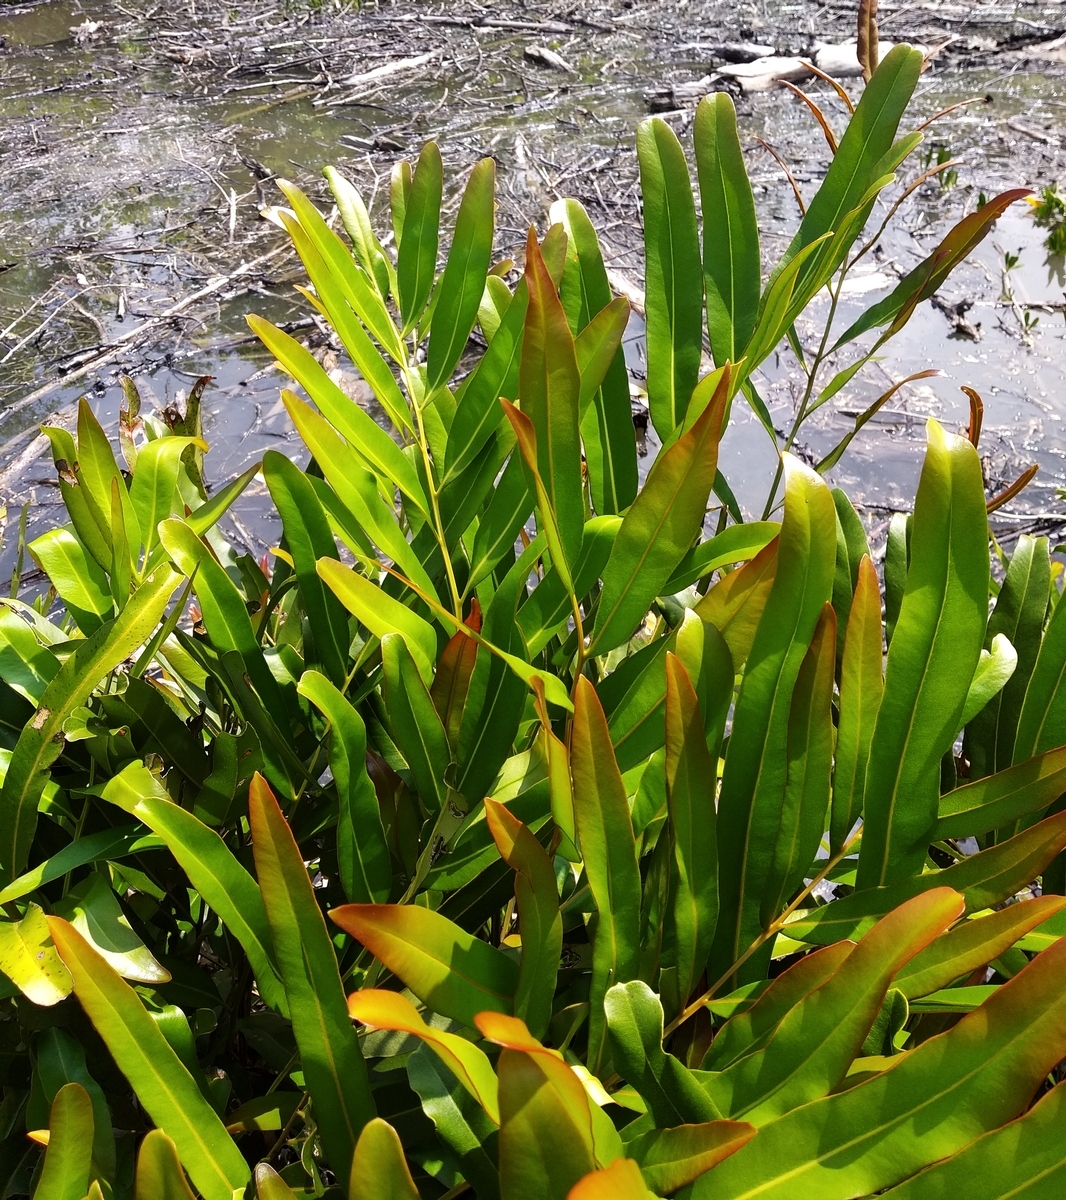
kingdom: Plantae
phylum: Tracheophyta
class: Polypodiopsida
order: Polypodiales
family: Pteridaceae
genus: Acrostichum
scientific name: Acrostichum aureum
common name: Leather fern
